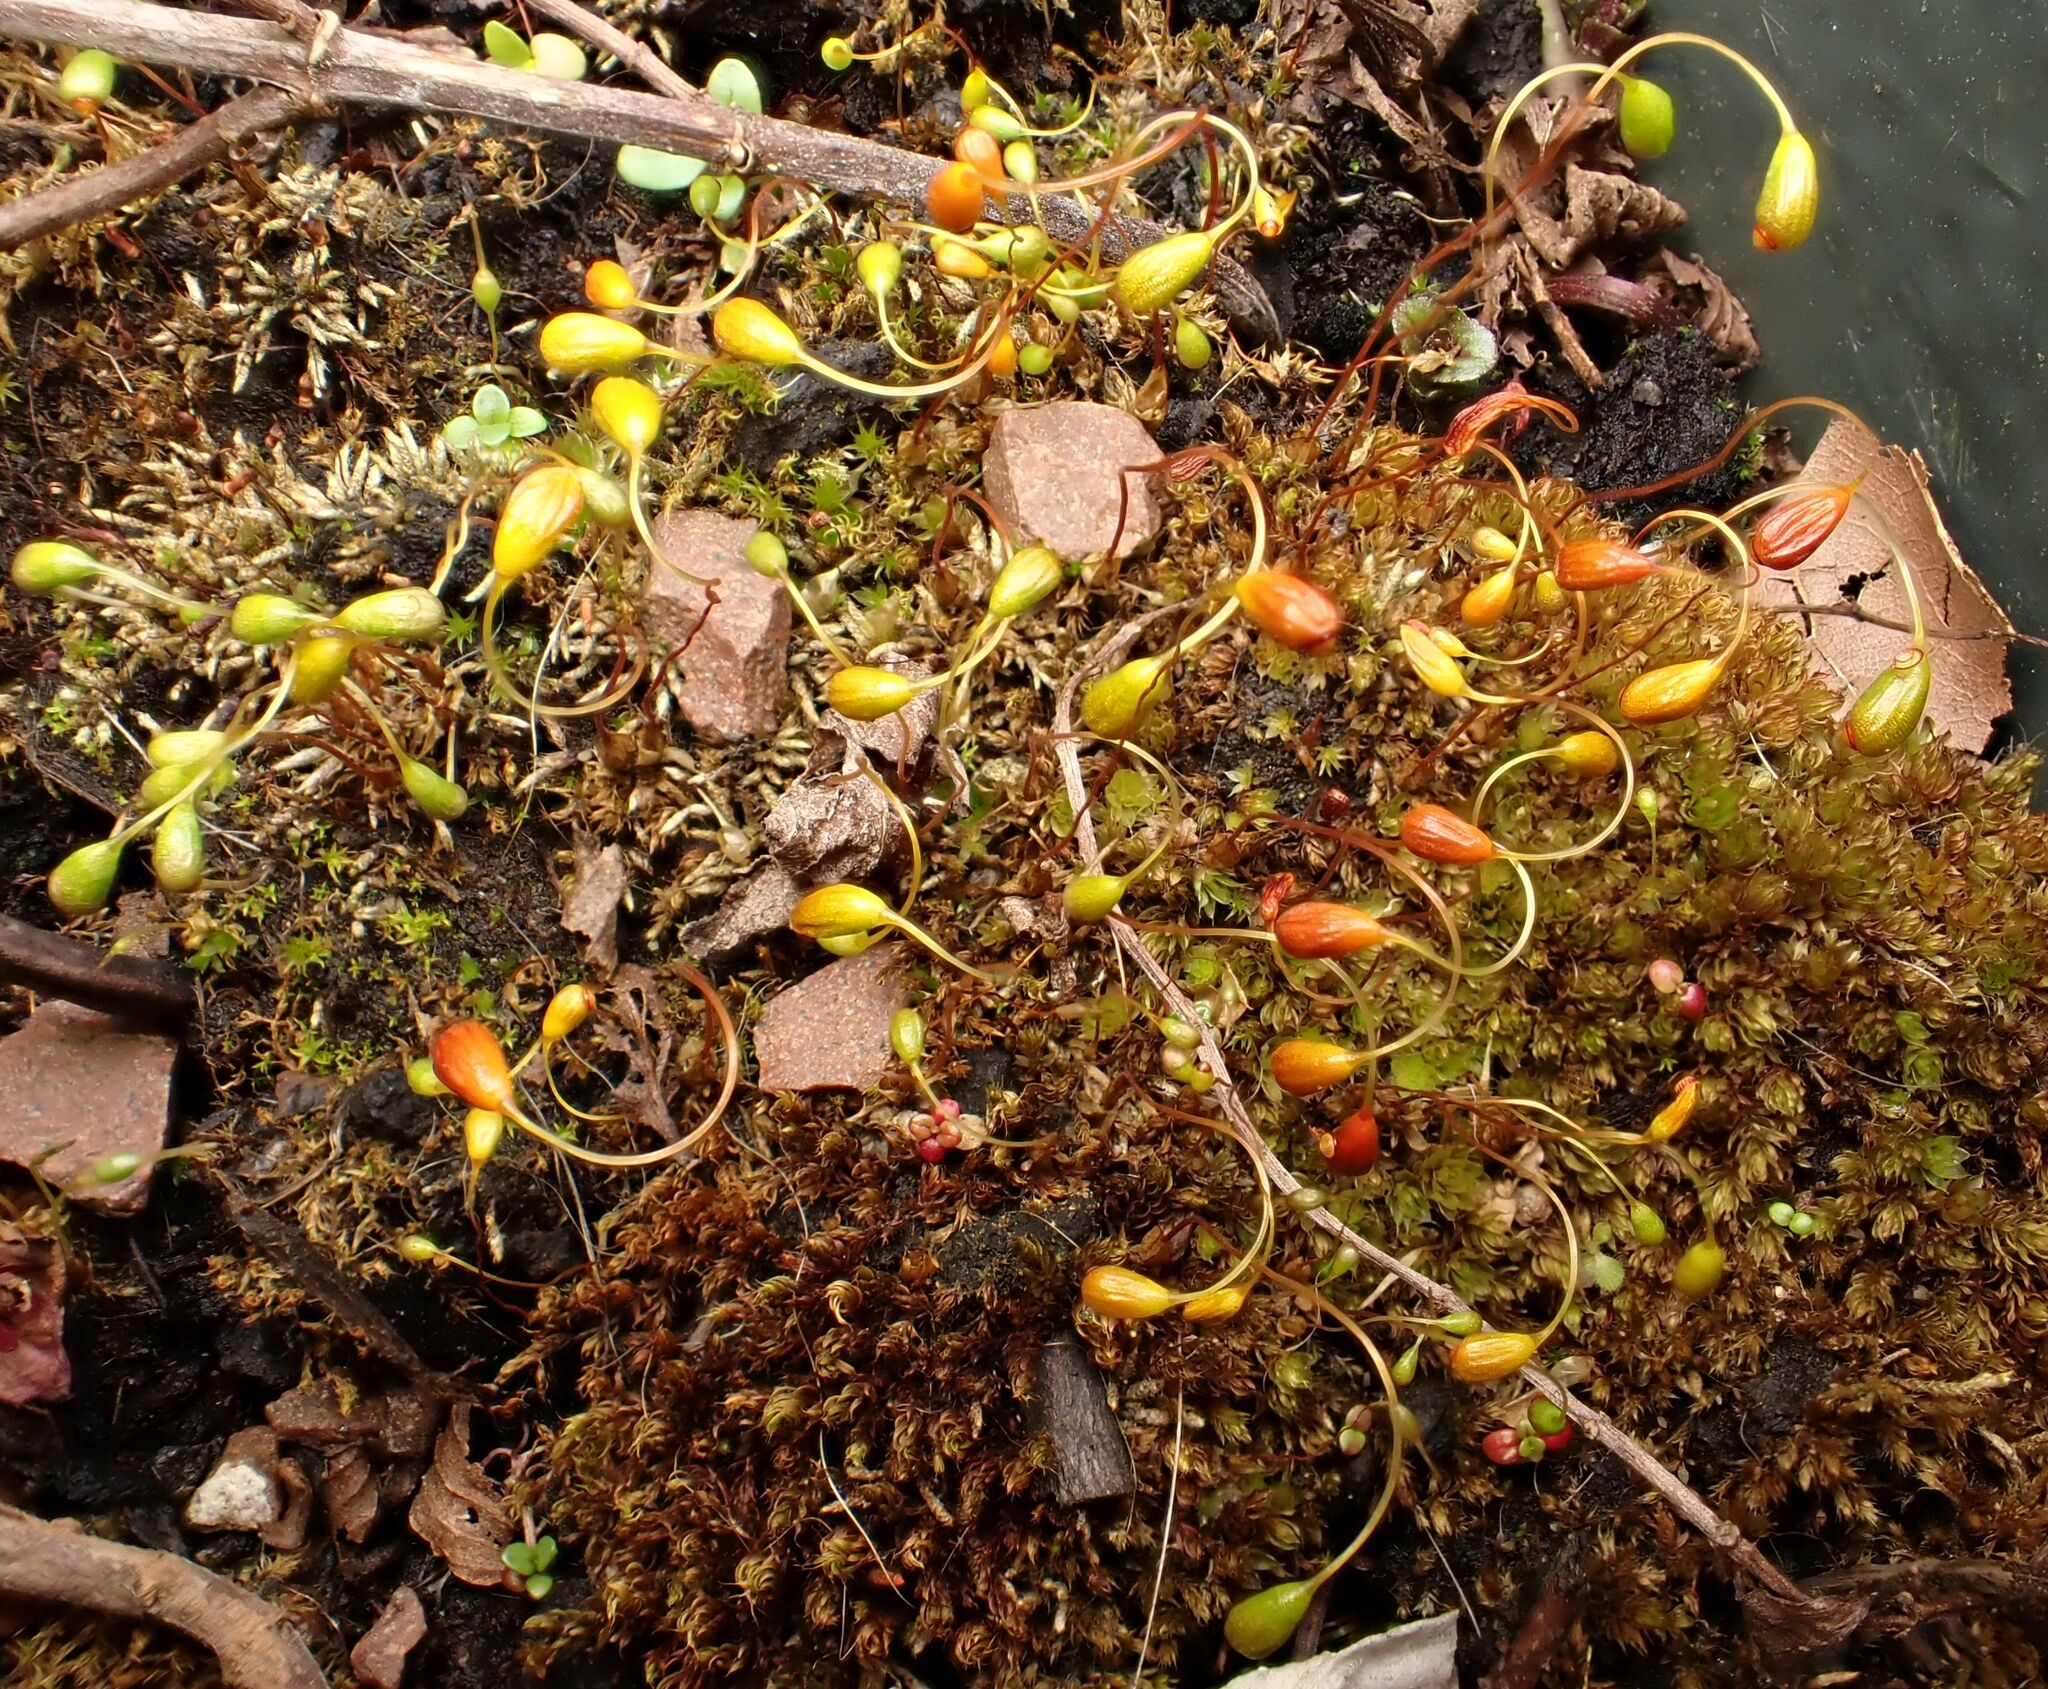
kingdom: Plantae
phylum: Bryophyta
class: Bryopsida
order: Funariales
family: Funariaceae
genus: Funaria
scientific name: Funaria hygrometrica
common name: Common cord moss
